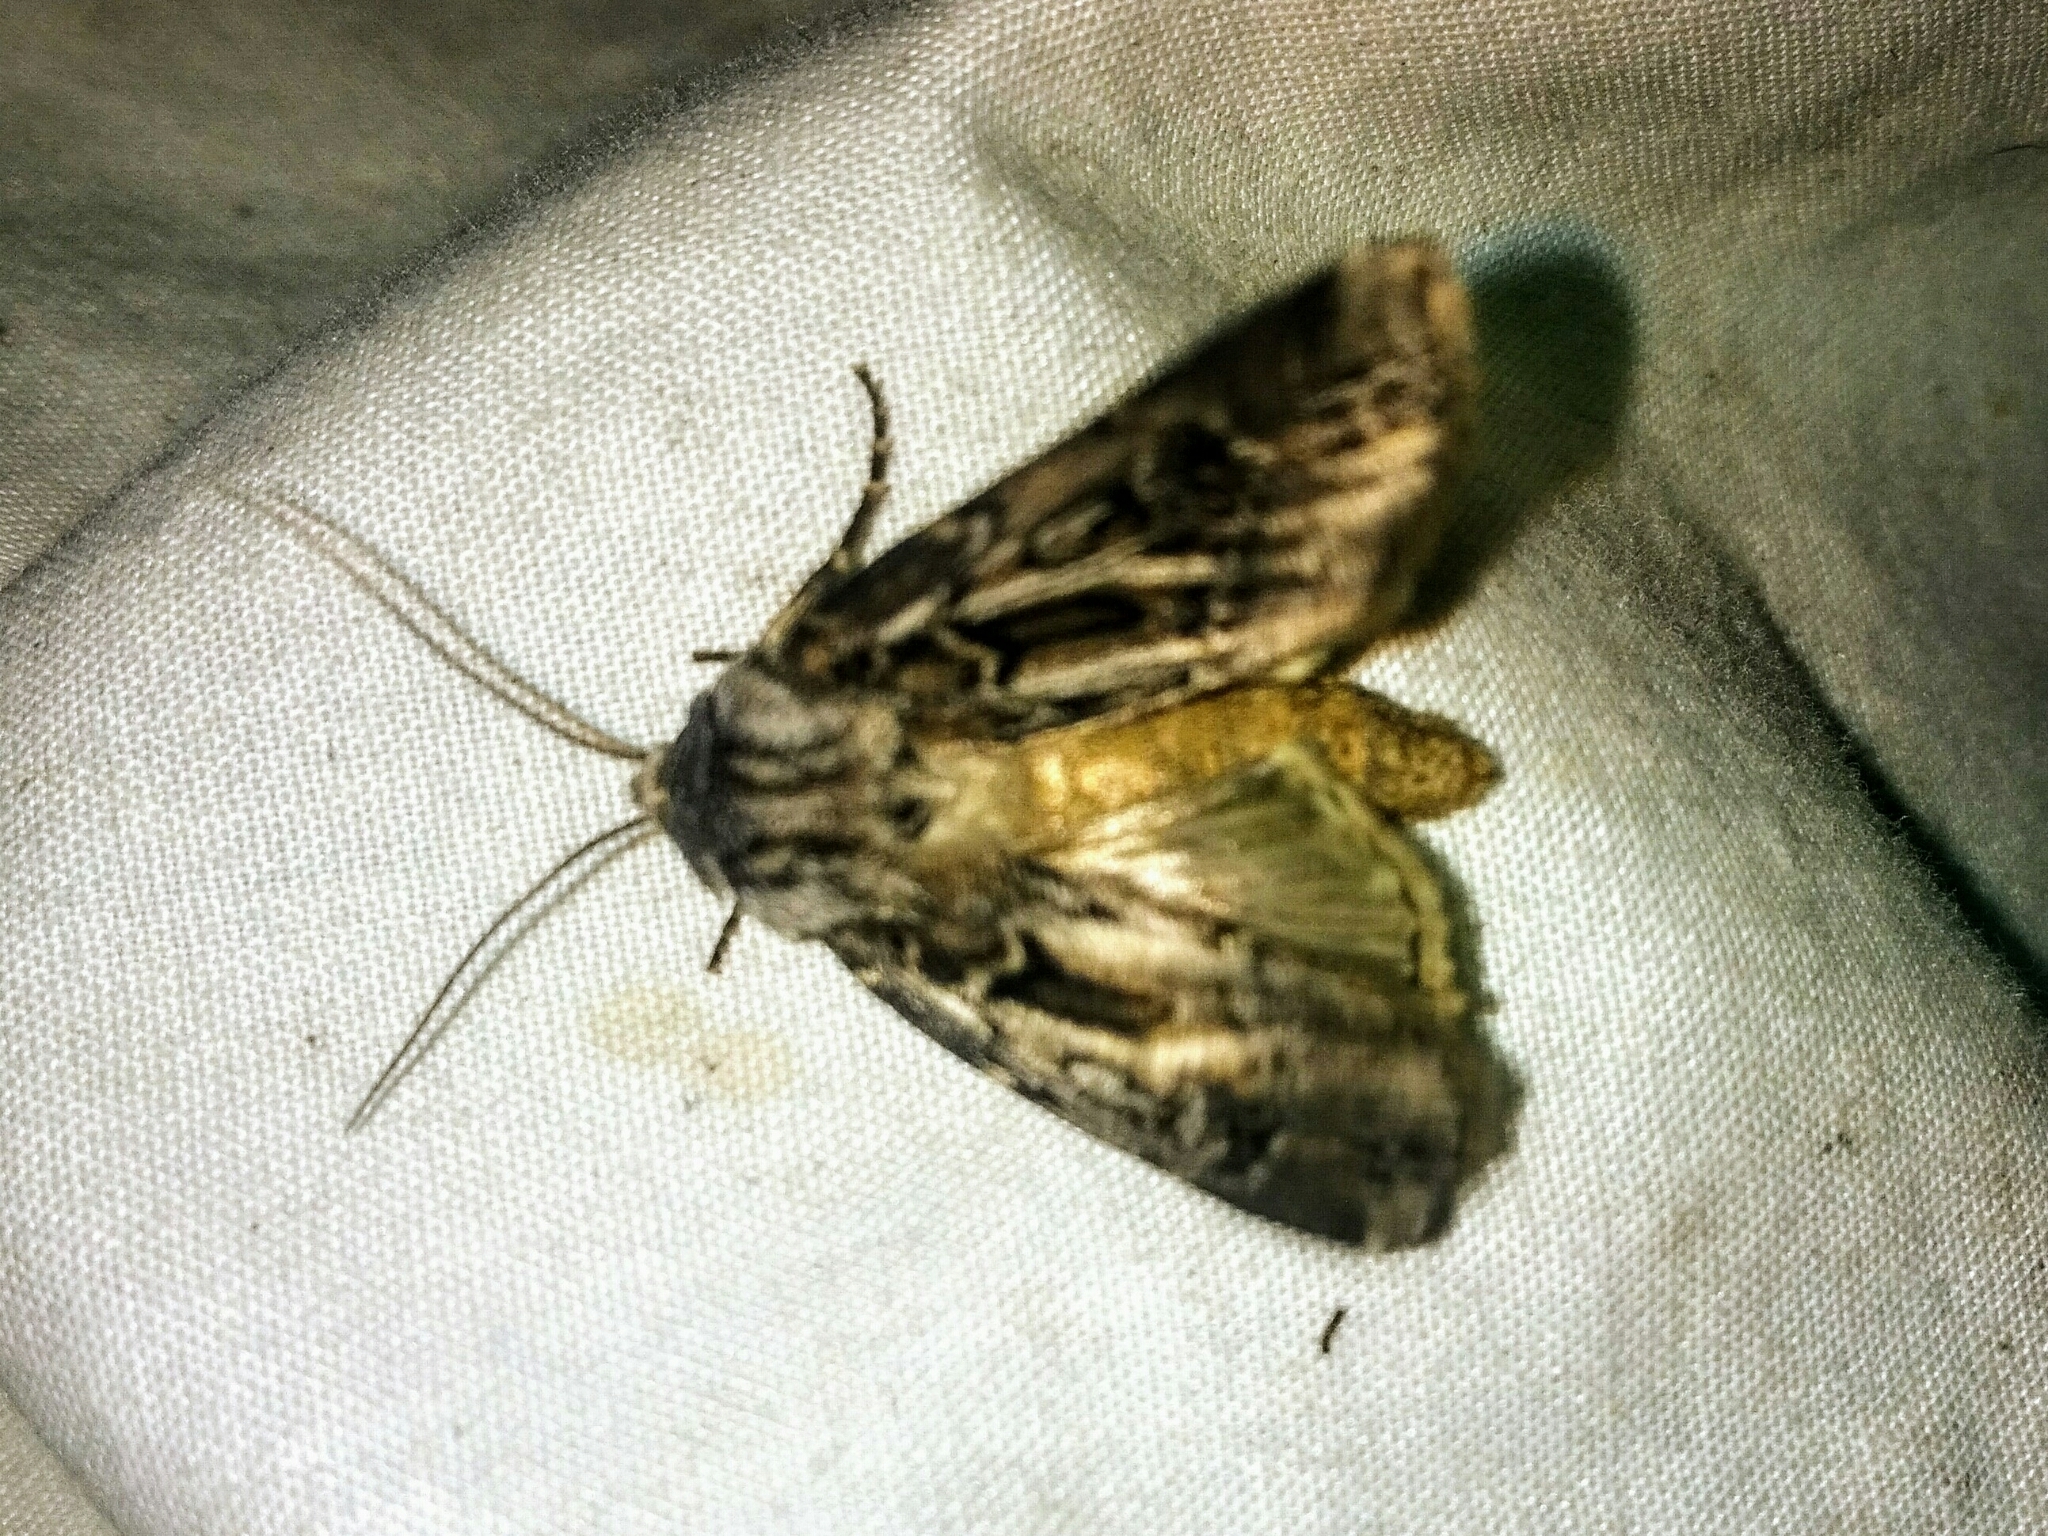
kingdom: Animalia
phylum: Arthropoda
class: Insecta
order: Lepidoptera
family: Noctuidae
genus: Agrotis
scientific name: Agrotis robustior
